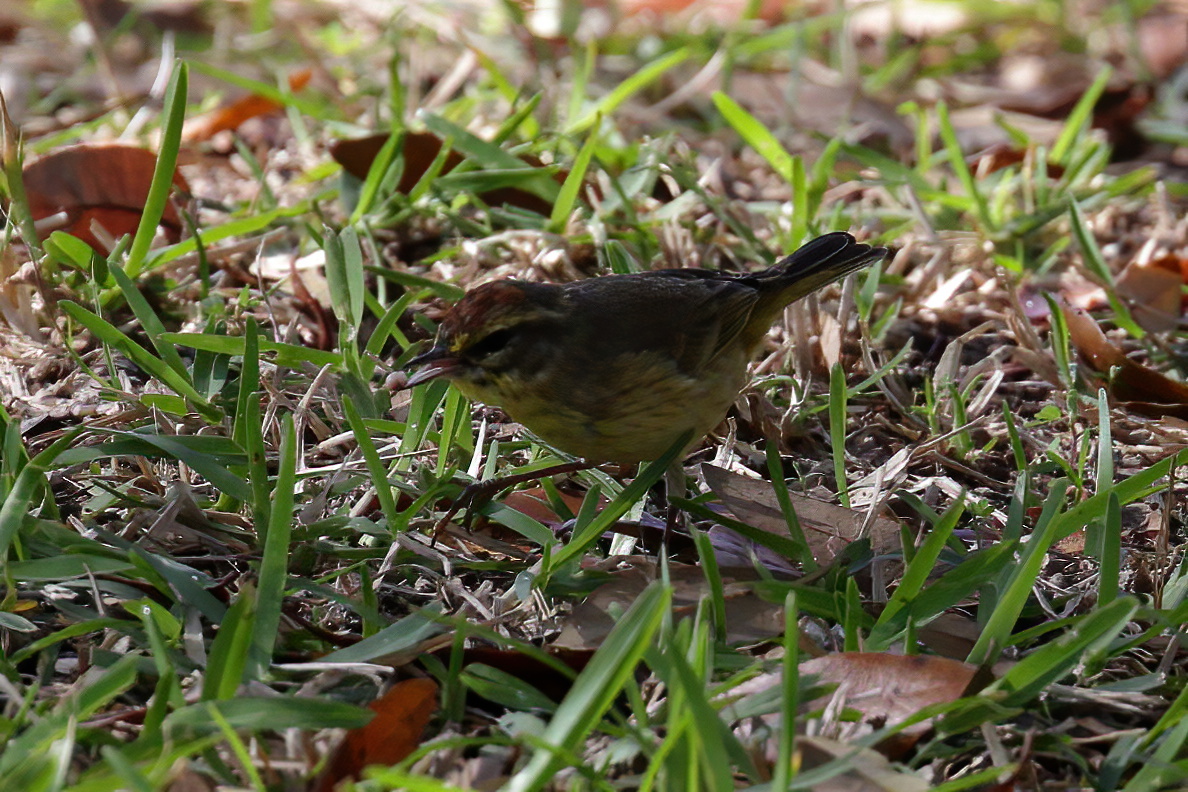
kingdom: Animalia
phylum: Chordata
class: Aves
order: Passeriformes
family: Parulidae
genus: Setophaga
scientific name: Setophaga palmarum
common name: Palm warbler
